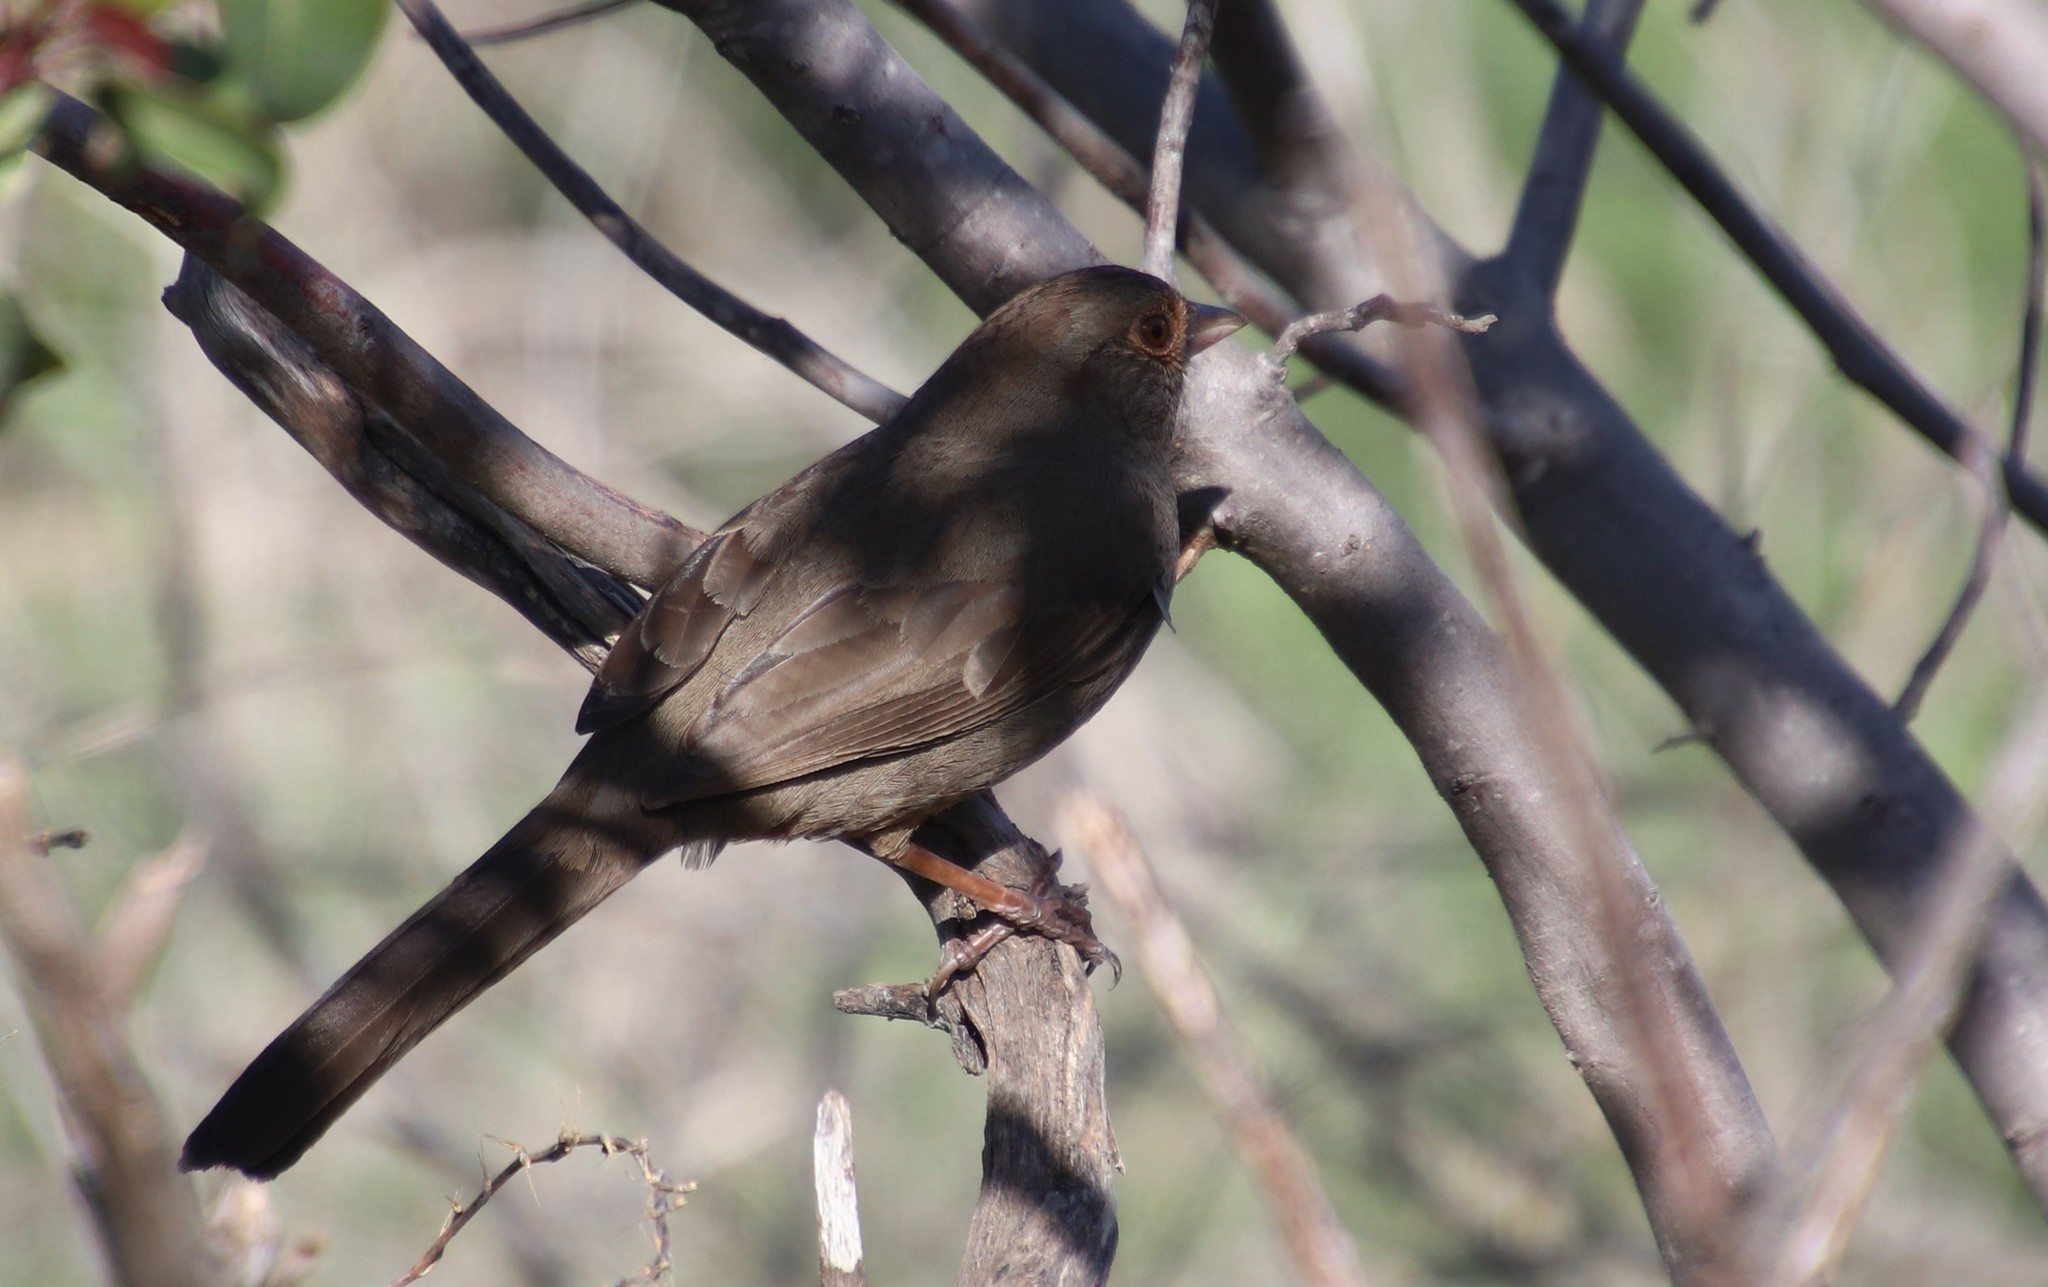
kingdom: Animalia
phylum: Chordata
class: Aves
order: Passeriformes
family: Passerellidae
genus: Melozone
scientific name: Melozone crissalis
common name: California towhee
